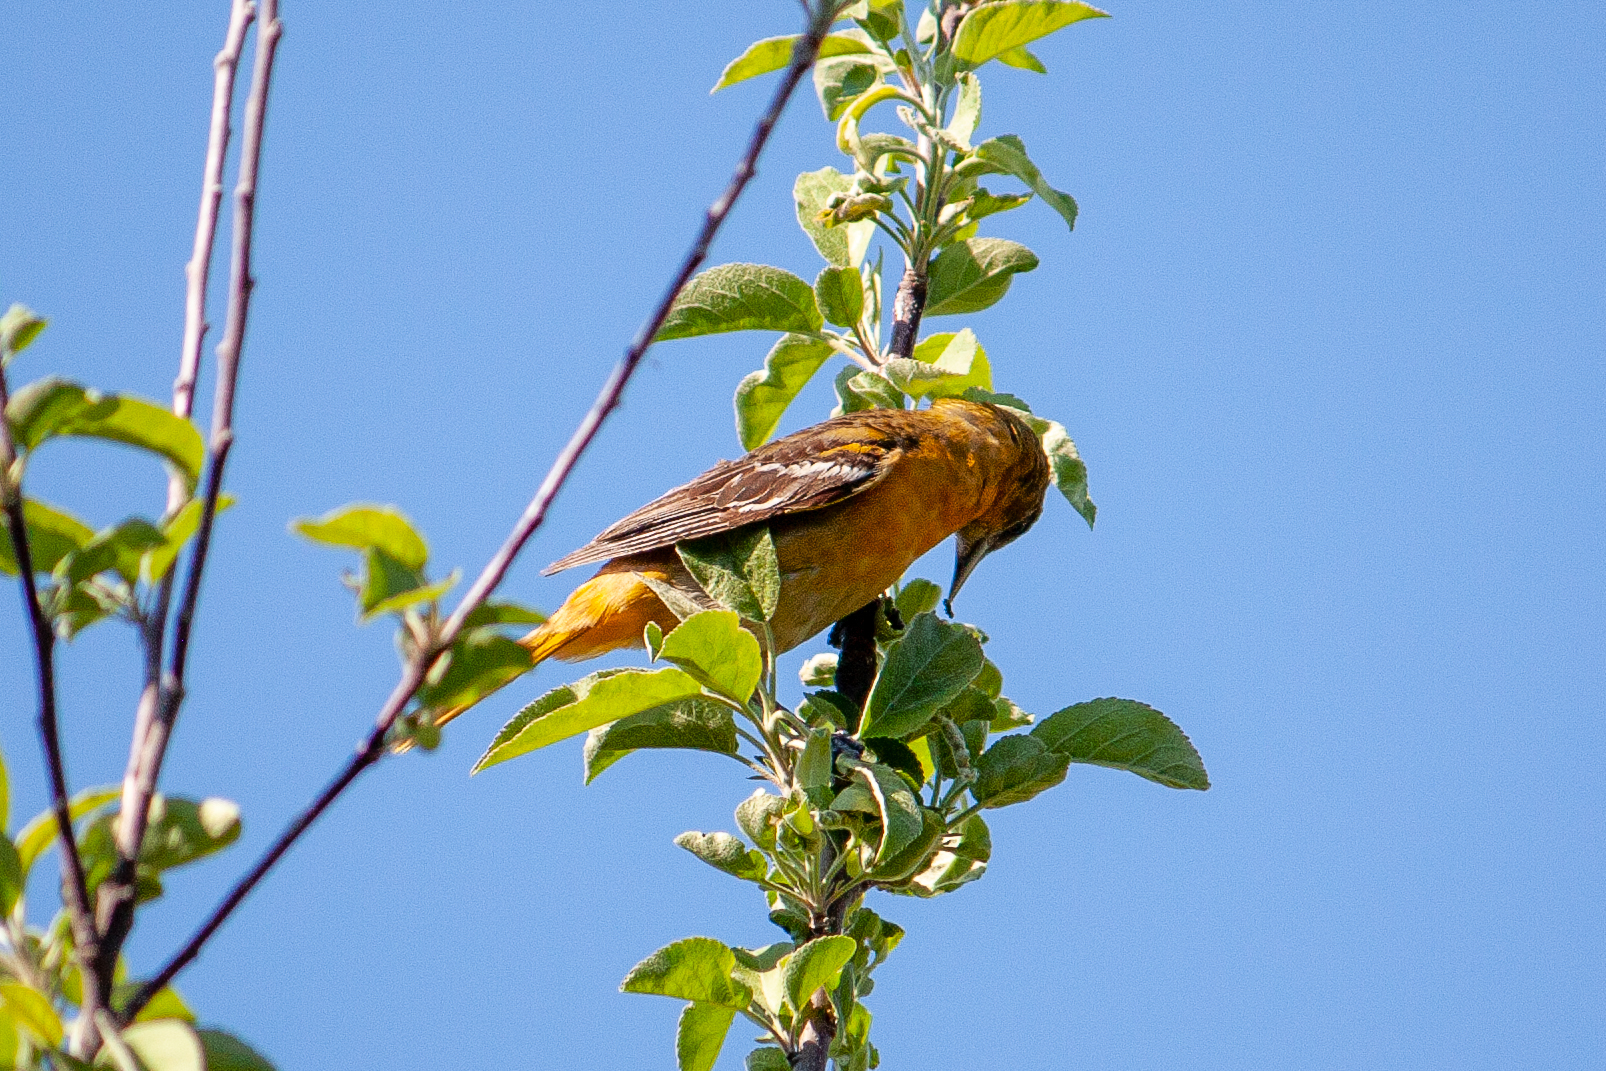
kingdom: Animalia
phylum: Chordata
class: Aves
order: Passeriformes
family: Icteridae
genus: Icterus
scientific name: Icterus galbula
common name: Baltimore oriole
